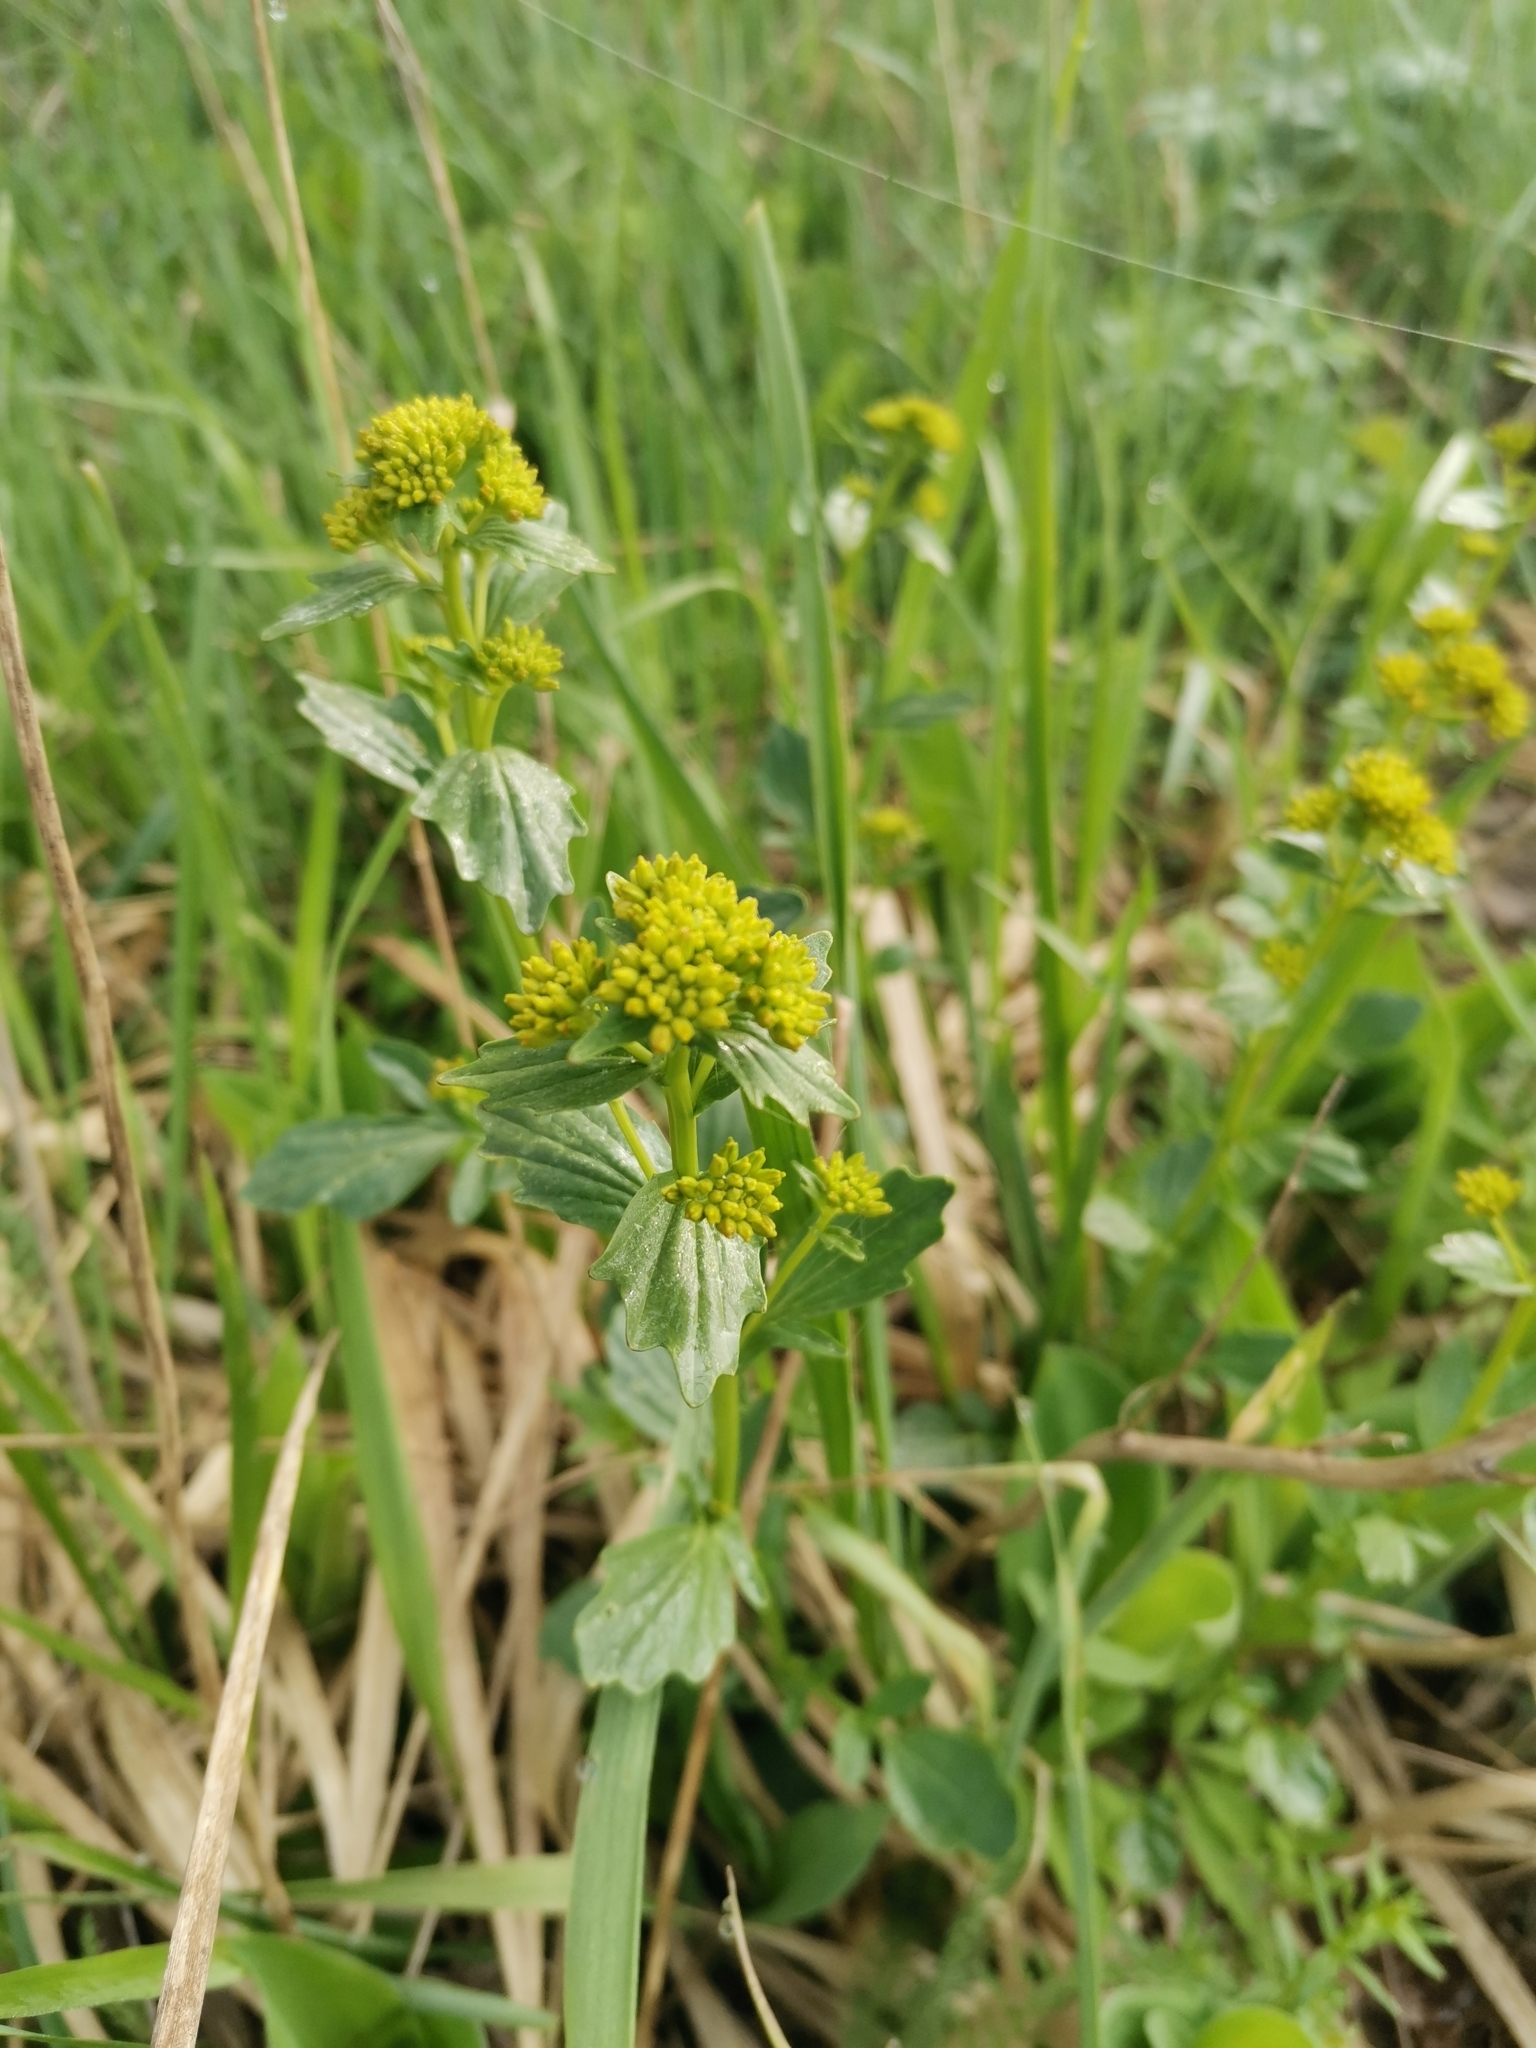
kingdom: Plantae
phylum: Tracheophyta
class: Magnoliopsida
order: Brassicales
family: Brassicaceae
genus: Barbarea
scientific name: Barbarea vulgaris
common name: Cressy-greens
